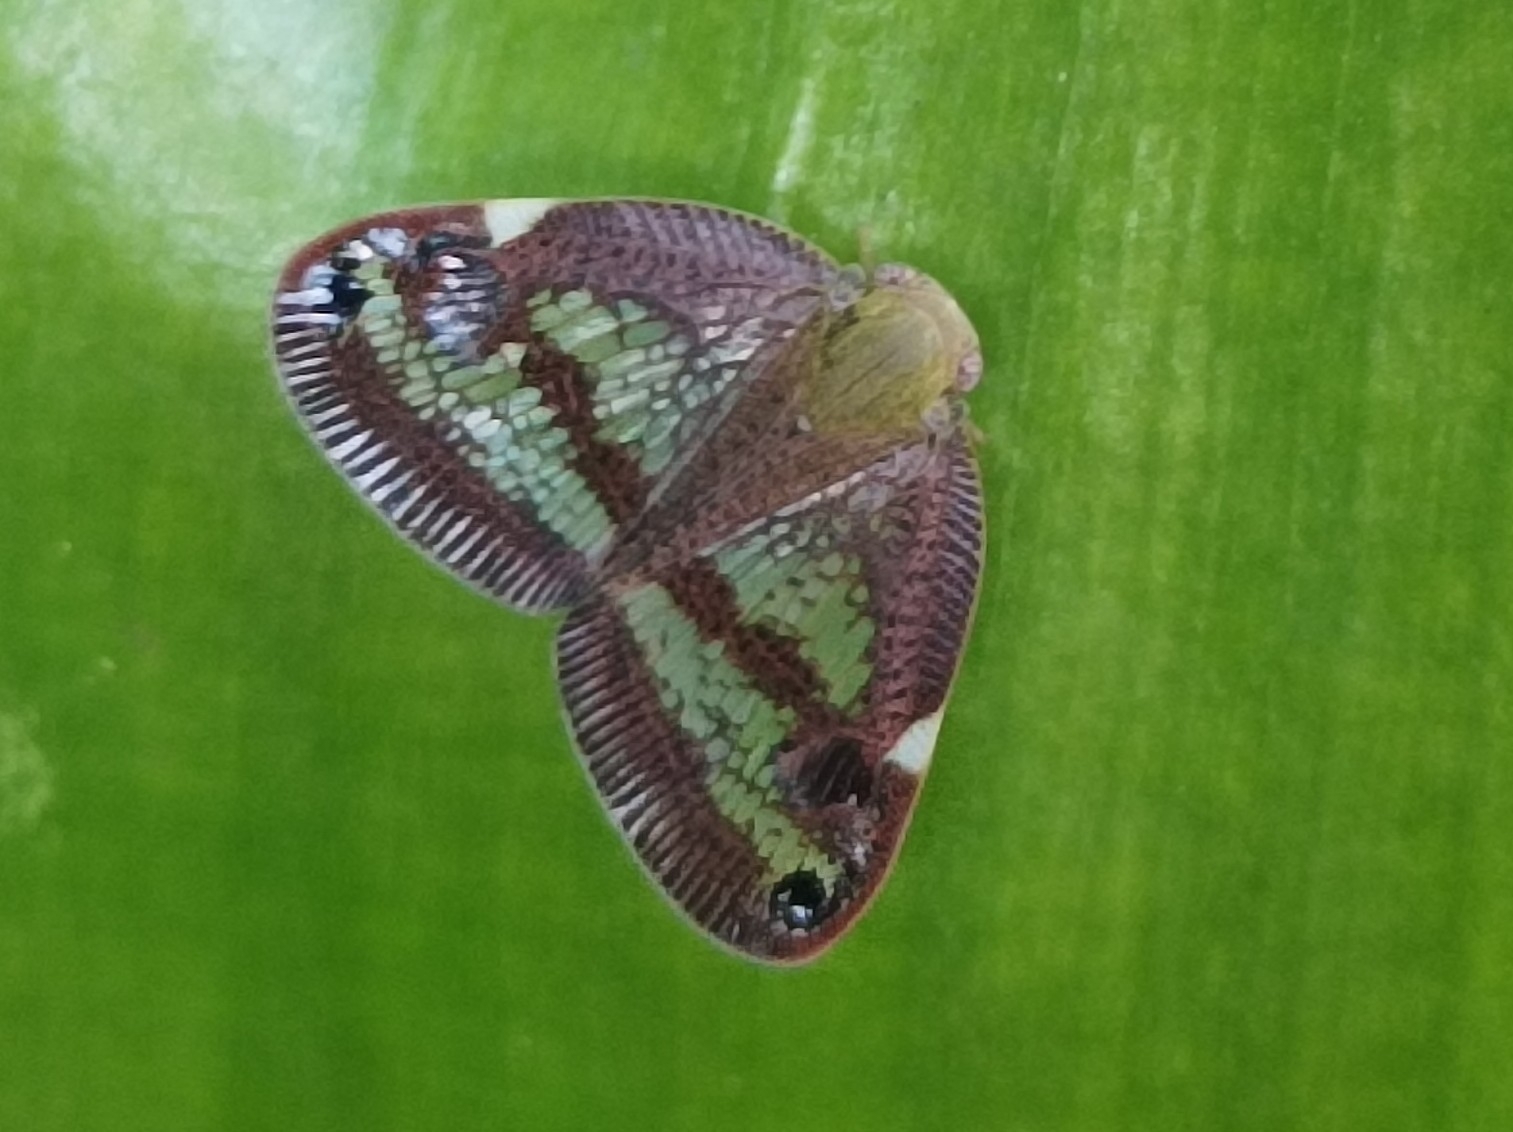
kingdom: Animalia
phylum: Arthropoda
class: Insecta
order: Hemiptera
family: Ricaniidae
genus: Parapiromis
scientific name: Parapiromis translucida
